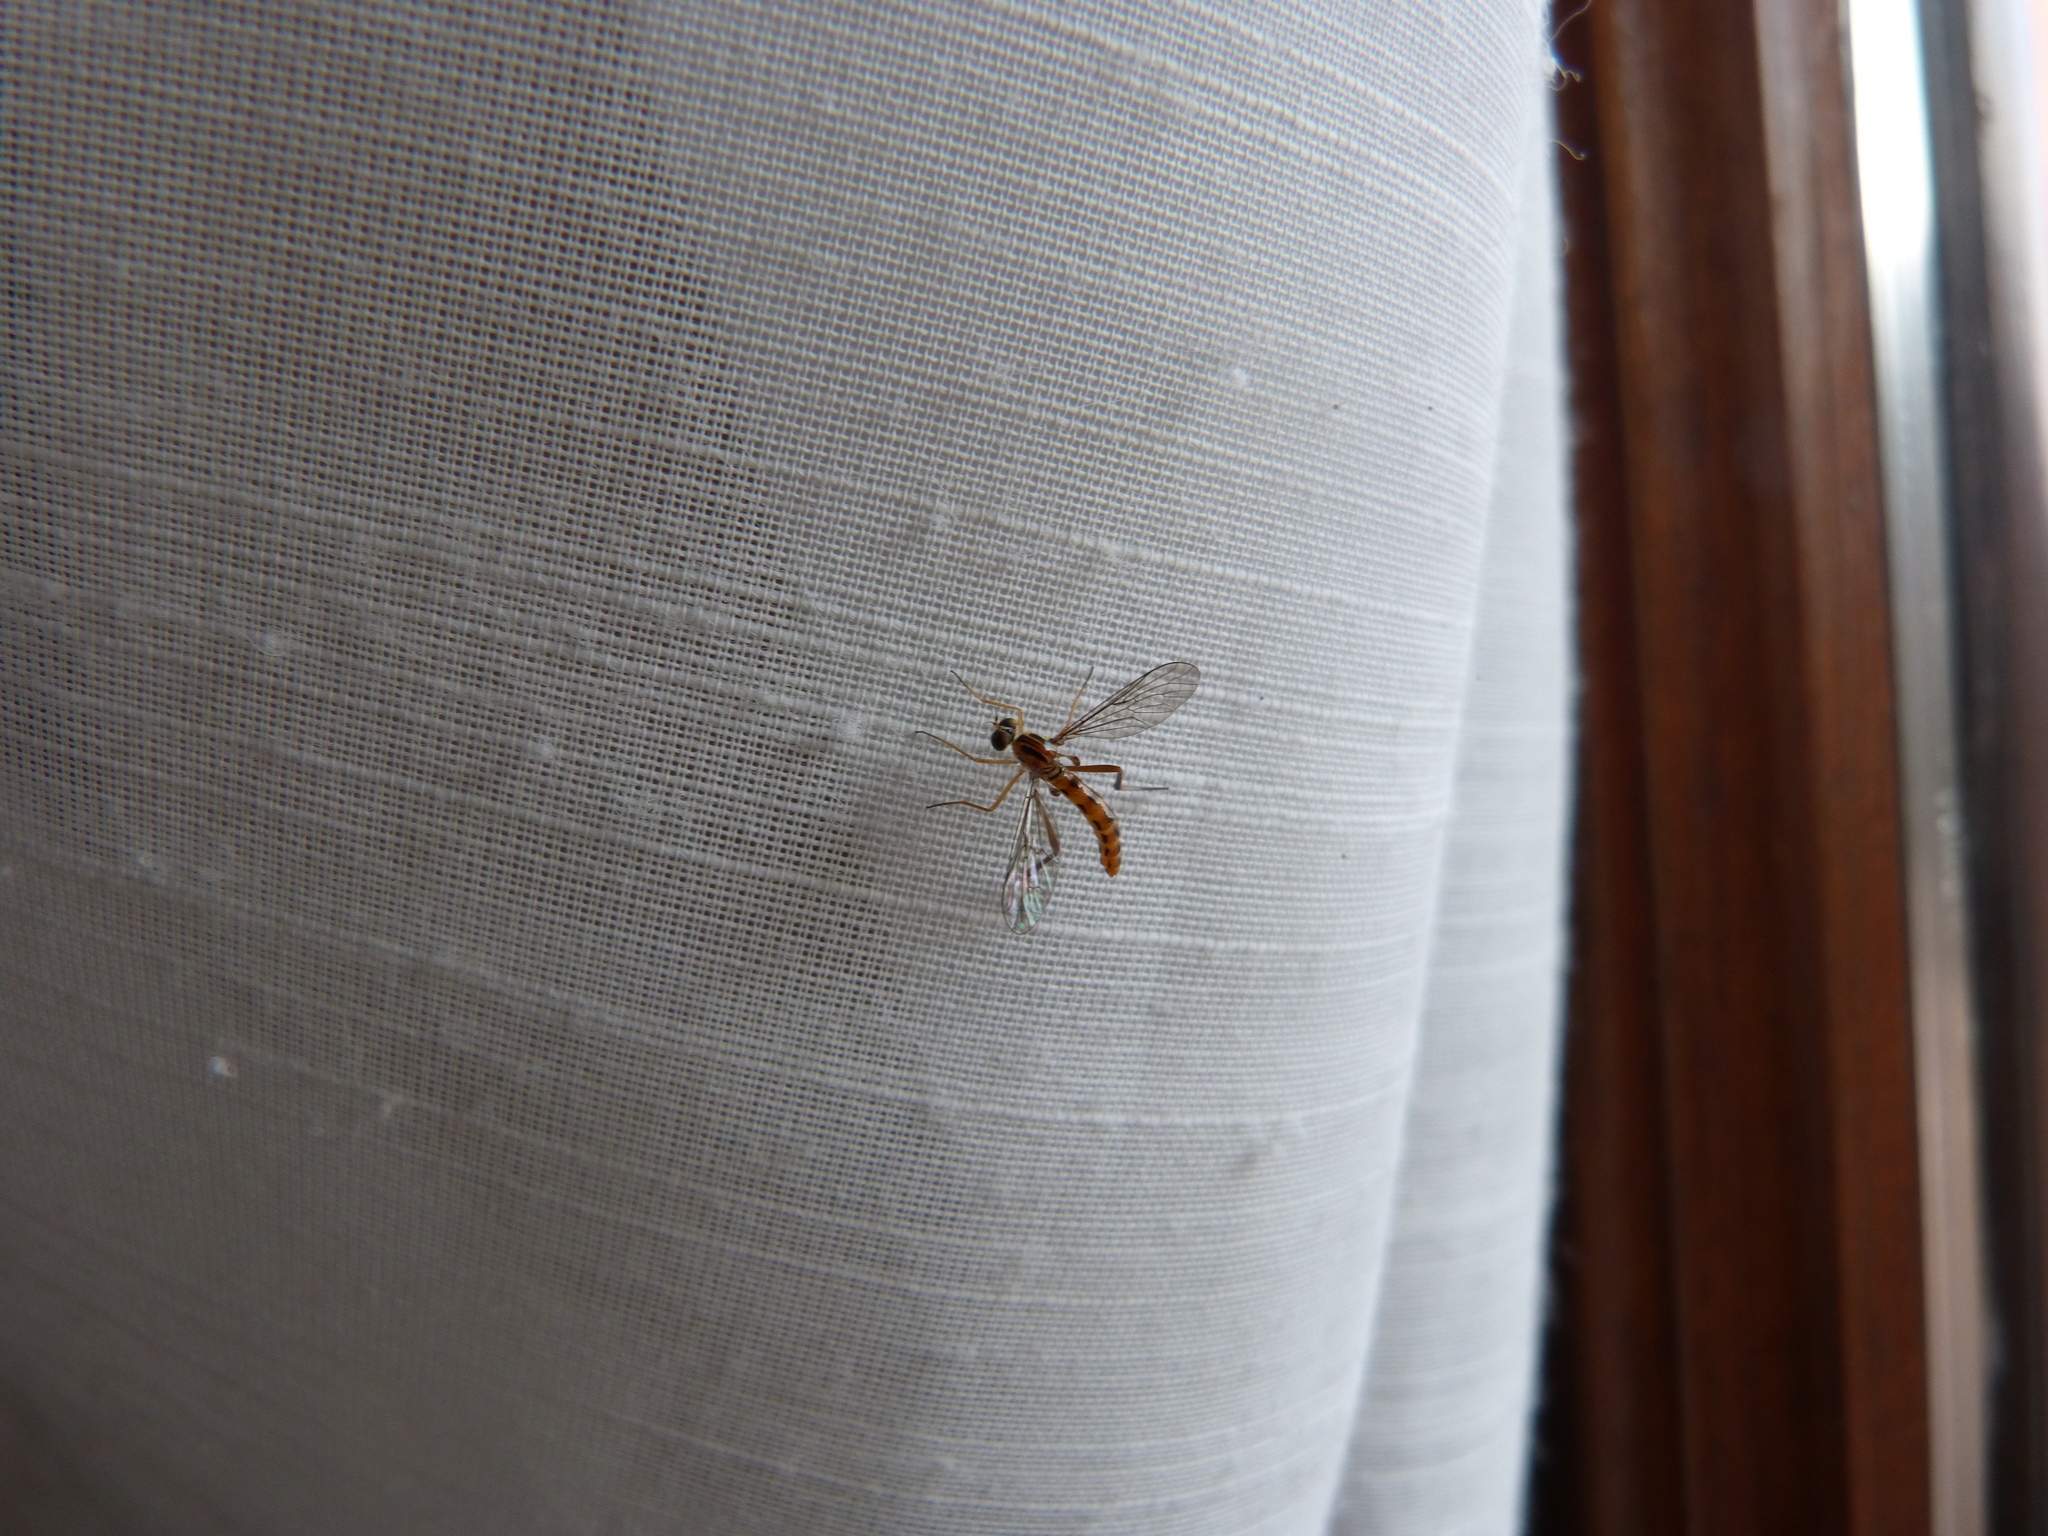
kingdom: Animalia
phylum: Arthropoda
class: Insecta
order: Diptera
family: Vermileonidae
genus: Vermileo
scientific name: Vermileo vermileo
